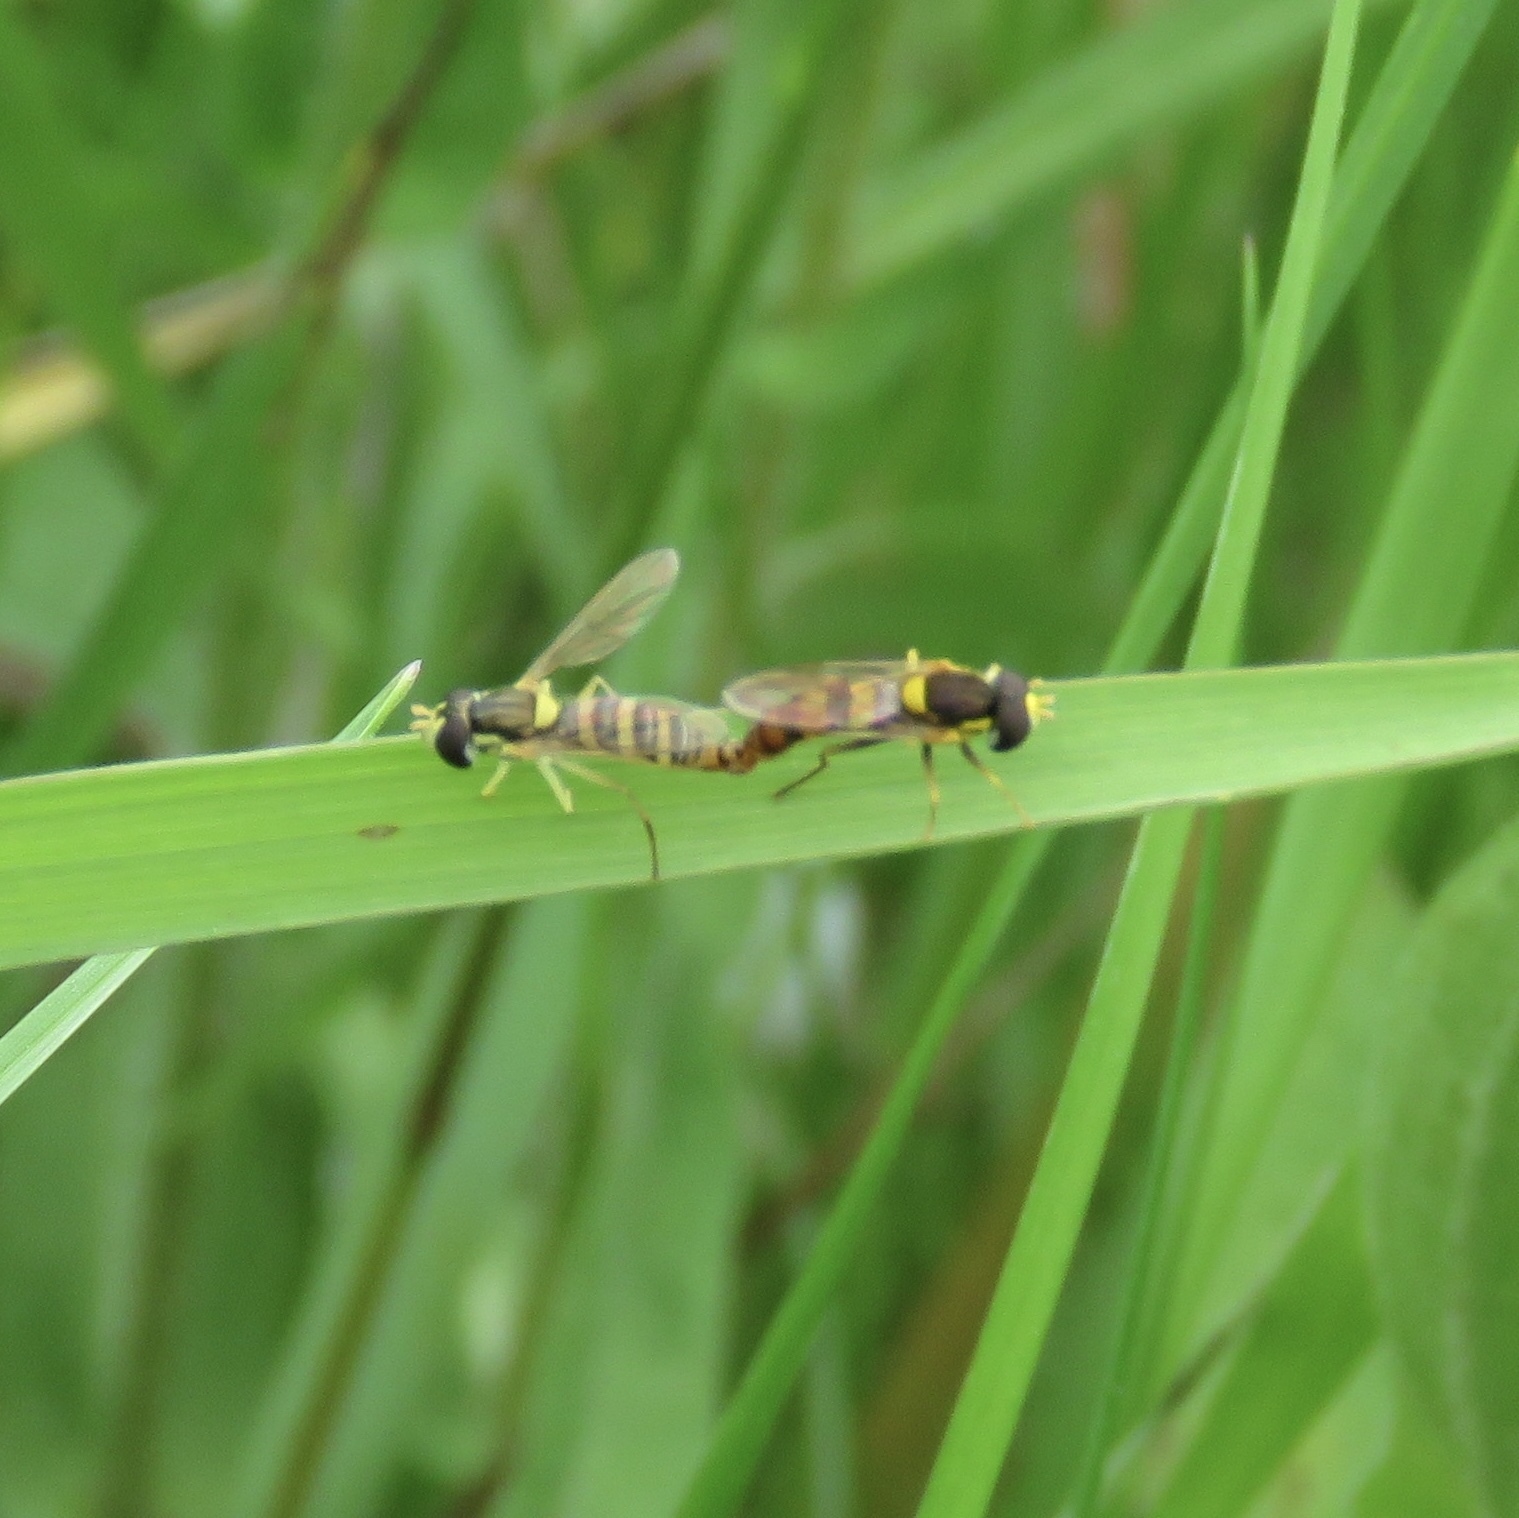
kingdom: Animalia
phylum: Arthropoda
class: Insecta
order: Diptera
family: Syrphidae
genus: Sphaerophoria
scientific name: Sphaerophoria contigua
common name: Tufted globetail
